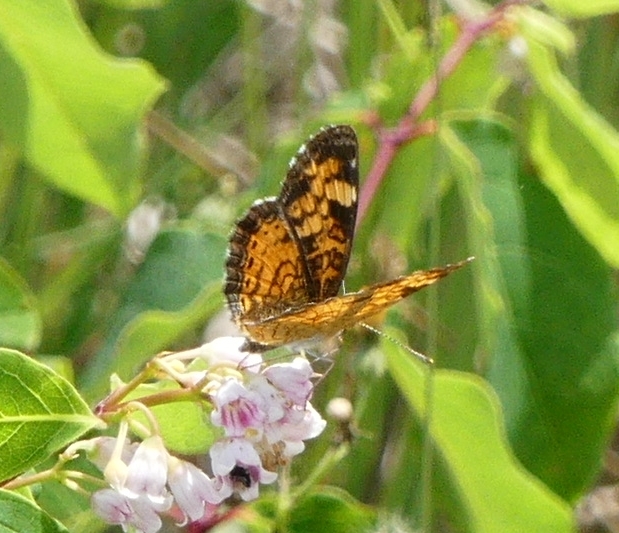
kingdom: Animalia
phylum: Arthropoda
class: Insecta
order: Lepidoptera
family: Nymphalidae
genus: Phyciodes
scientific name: Phyciodes tharos
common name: Pearl crescent
